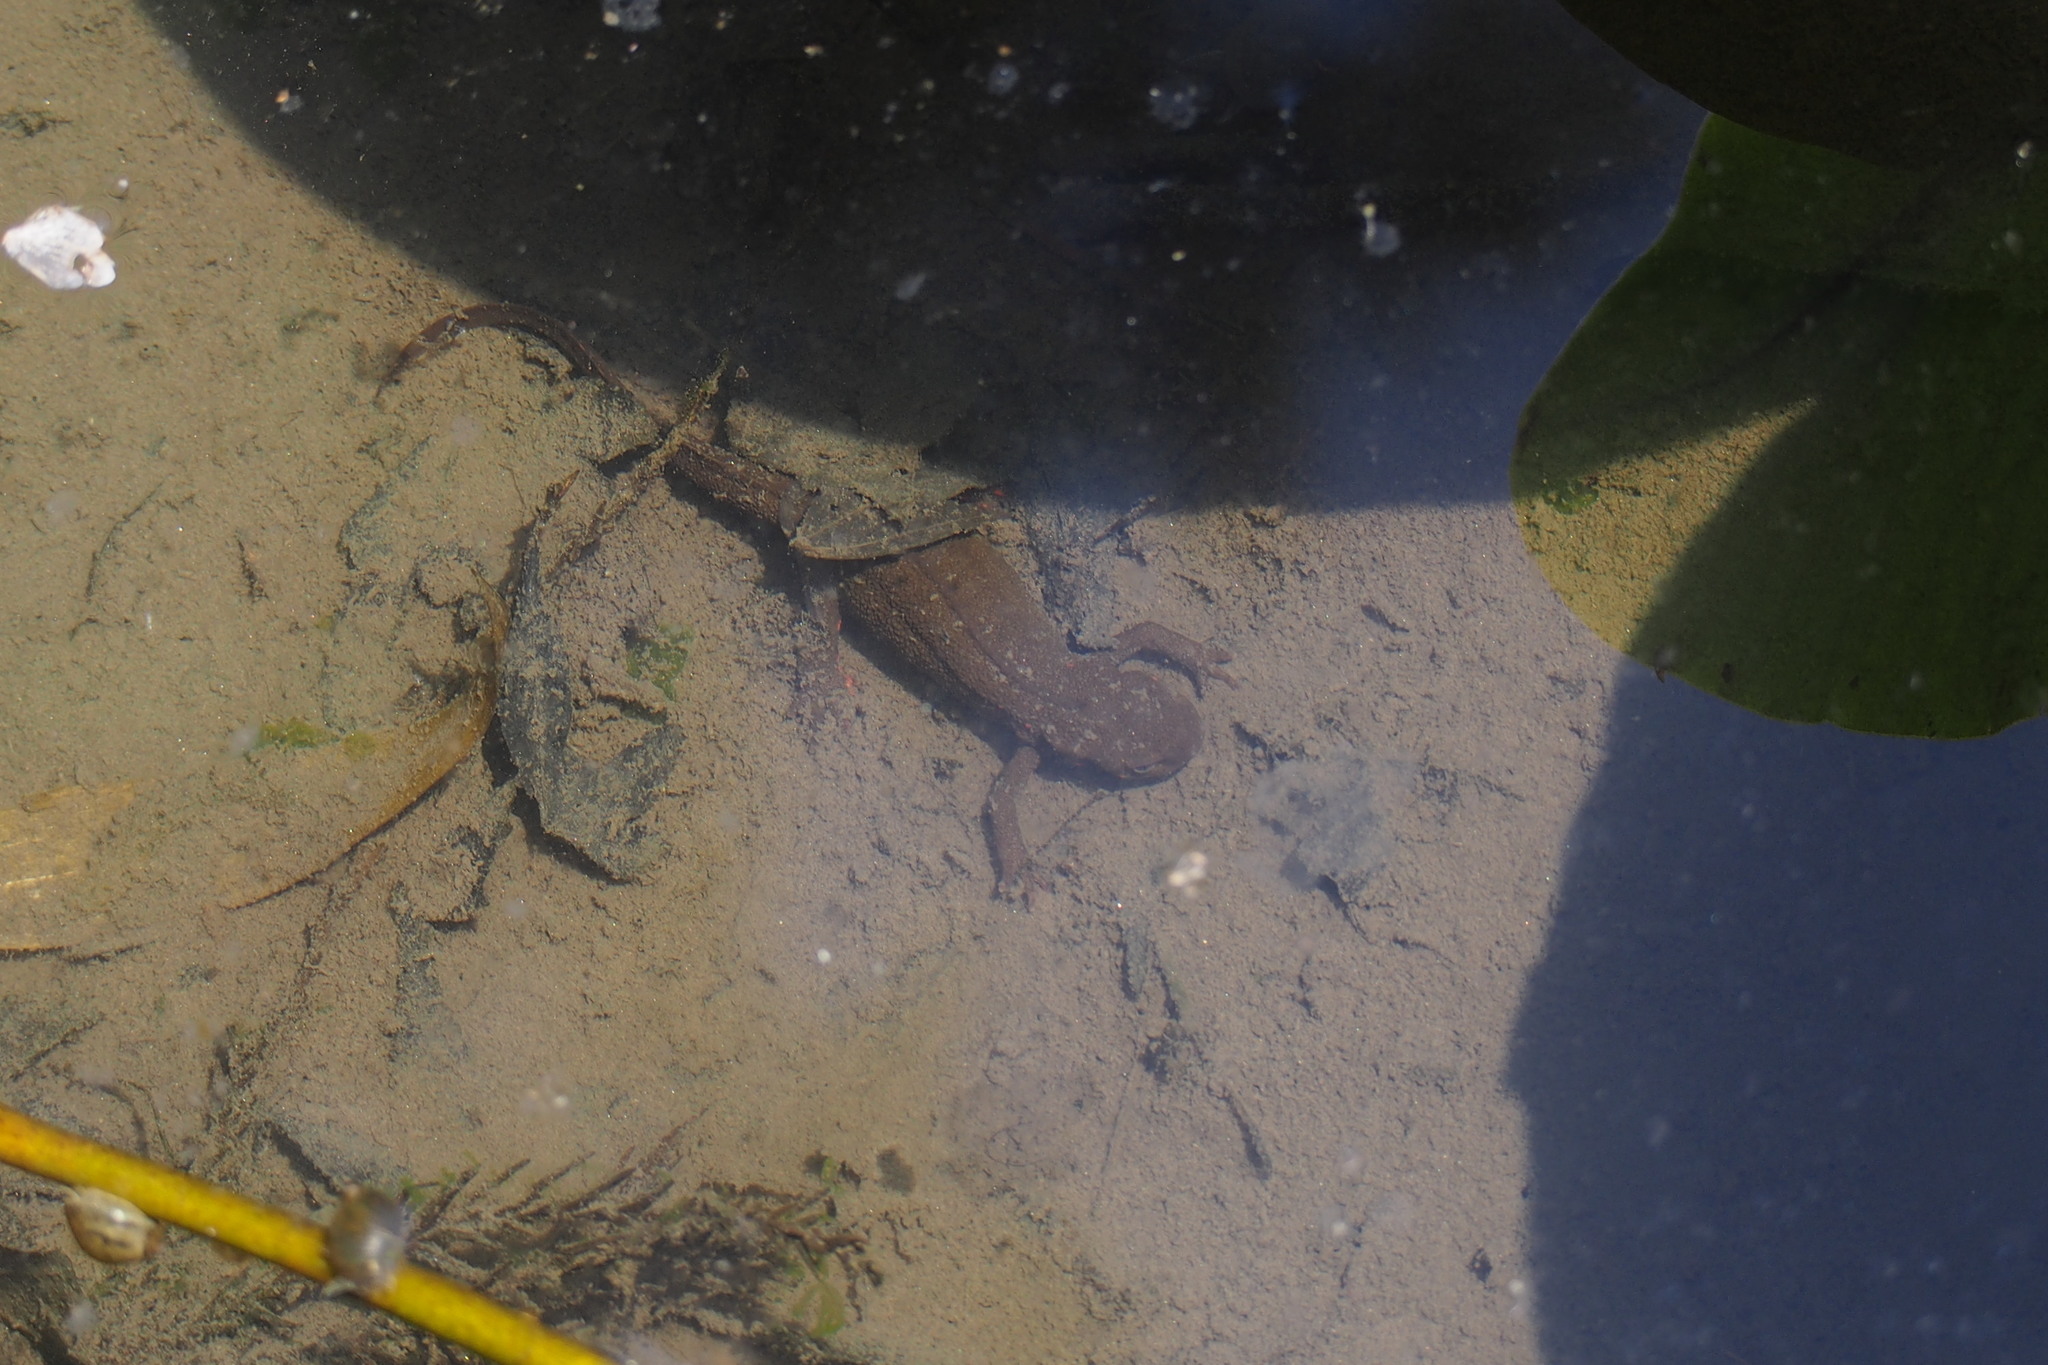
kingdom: Animalia
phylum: Chordata
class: Amphibia
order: Caudata
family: Salamandridae
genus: Cynops
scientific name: Cynops pyrrhogaster
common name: Japanese fire-bellied newt
